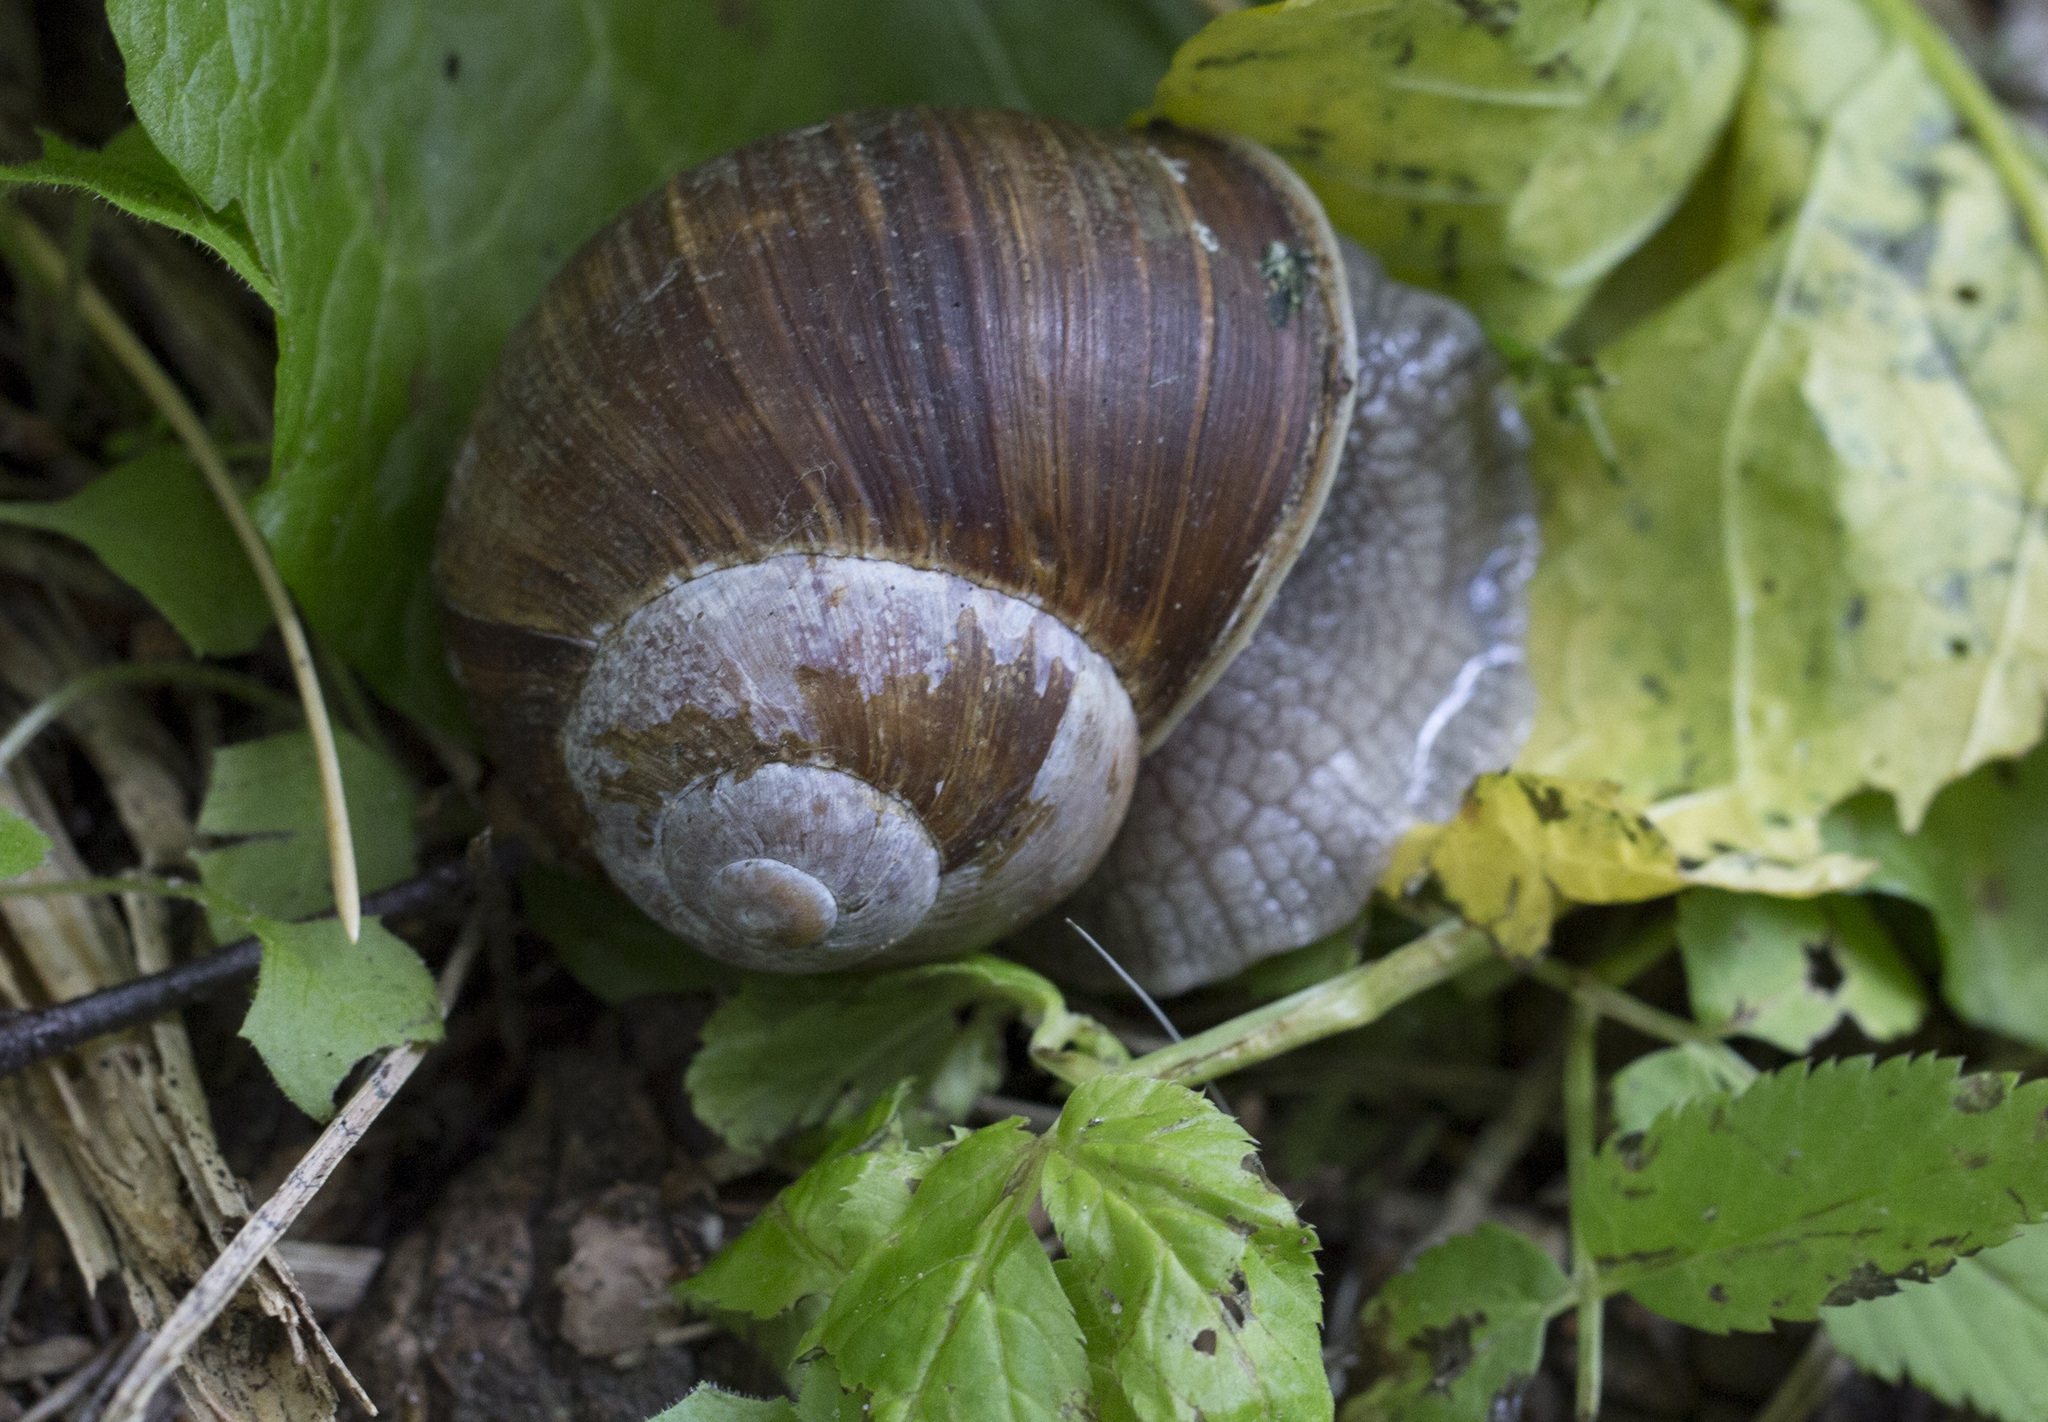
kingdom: Animalia
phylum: Mollusca
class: Gastropoda
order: Stylommatophora
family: Helicidae
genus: Helix
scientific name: Helix pomatia
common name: Roman snail
